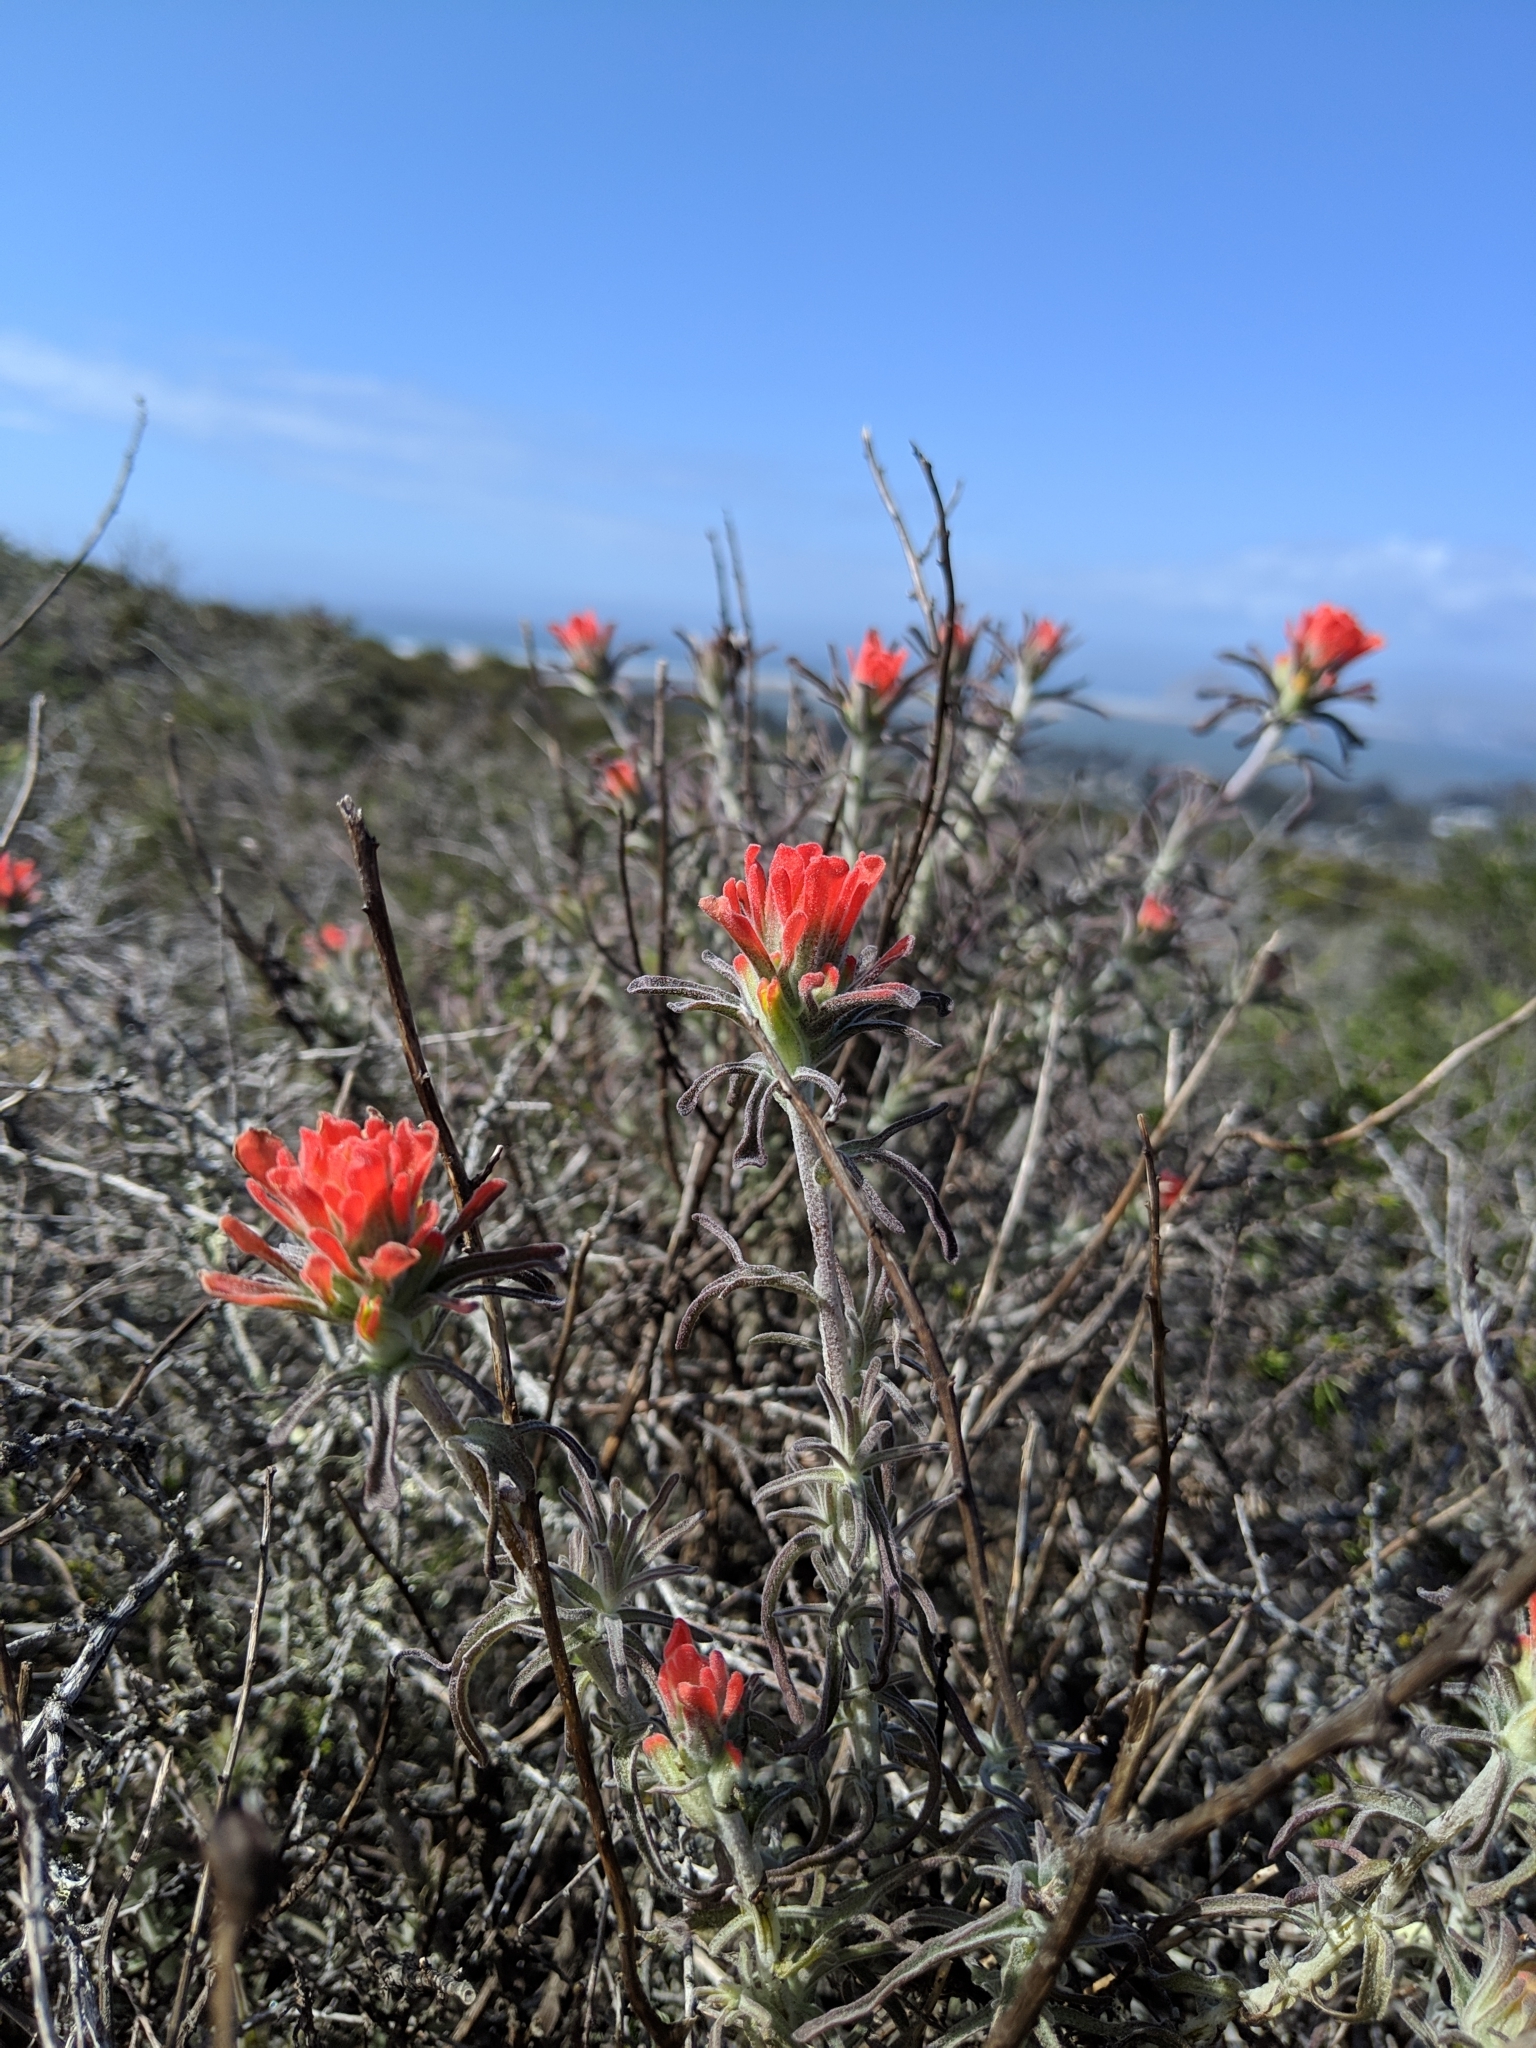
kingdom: Plantae
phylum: Tracheophyta
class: Magnoliopsida
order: Lamiales
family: Orobanchaceae
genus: Castilleja
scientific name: Castilleja foliolosa
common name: Woolly indian paintbrush
